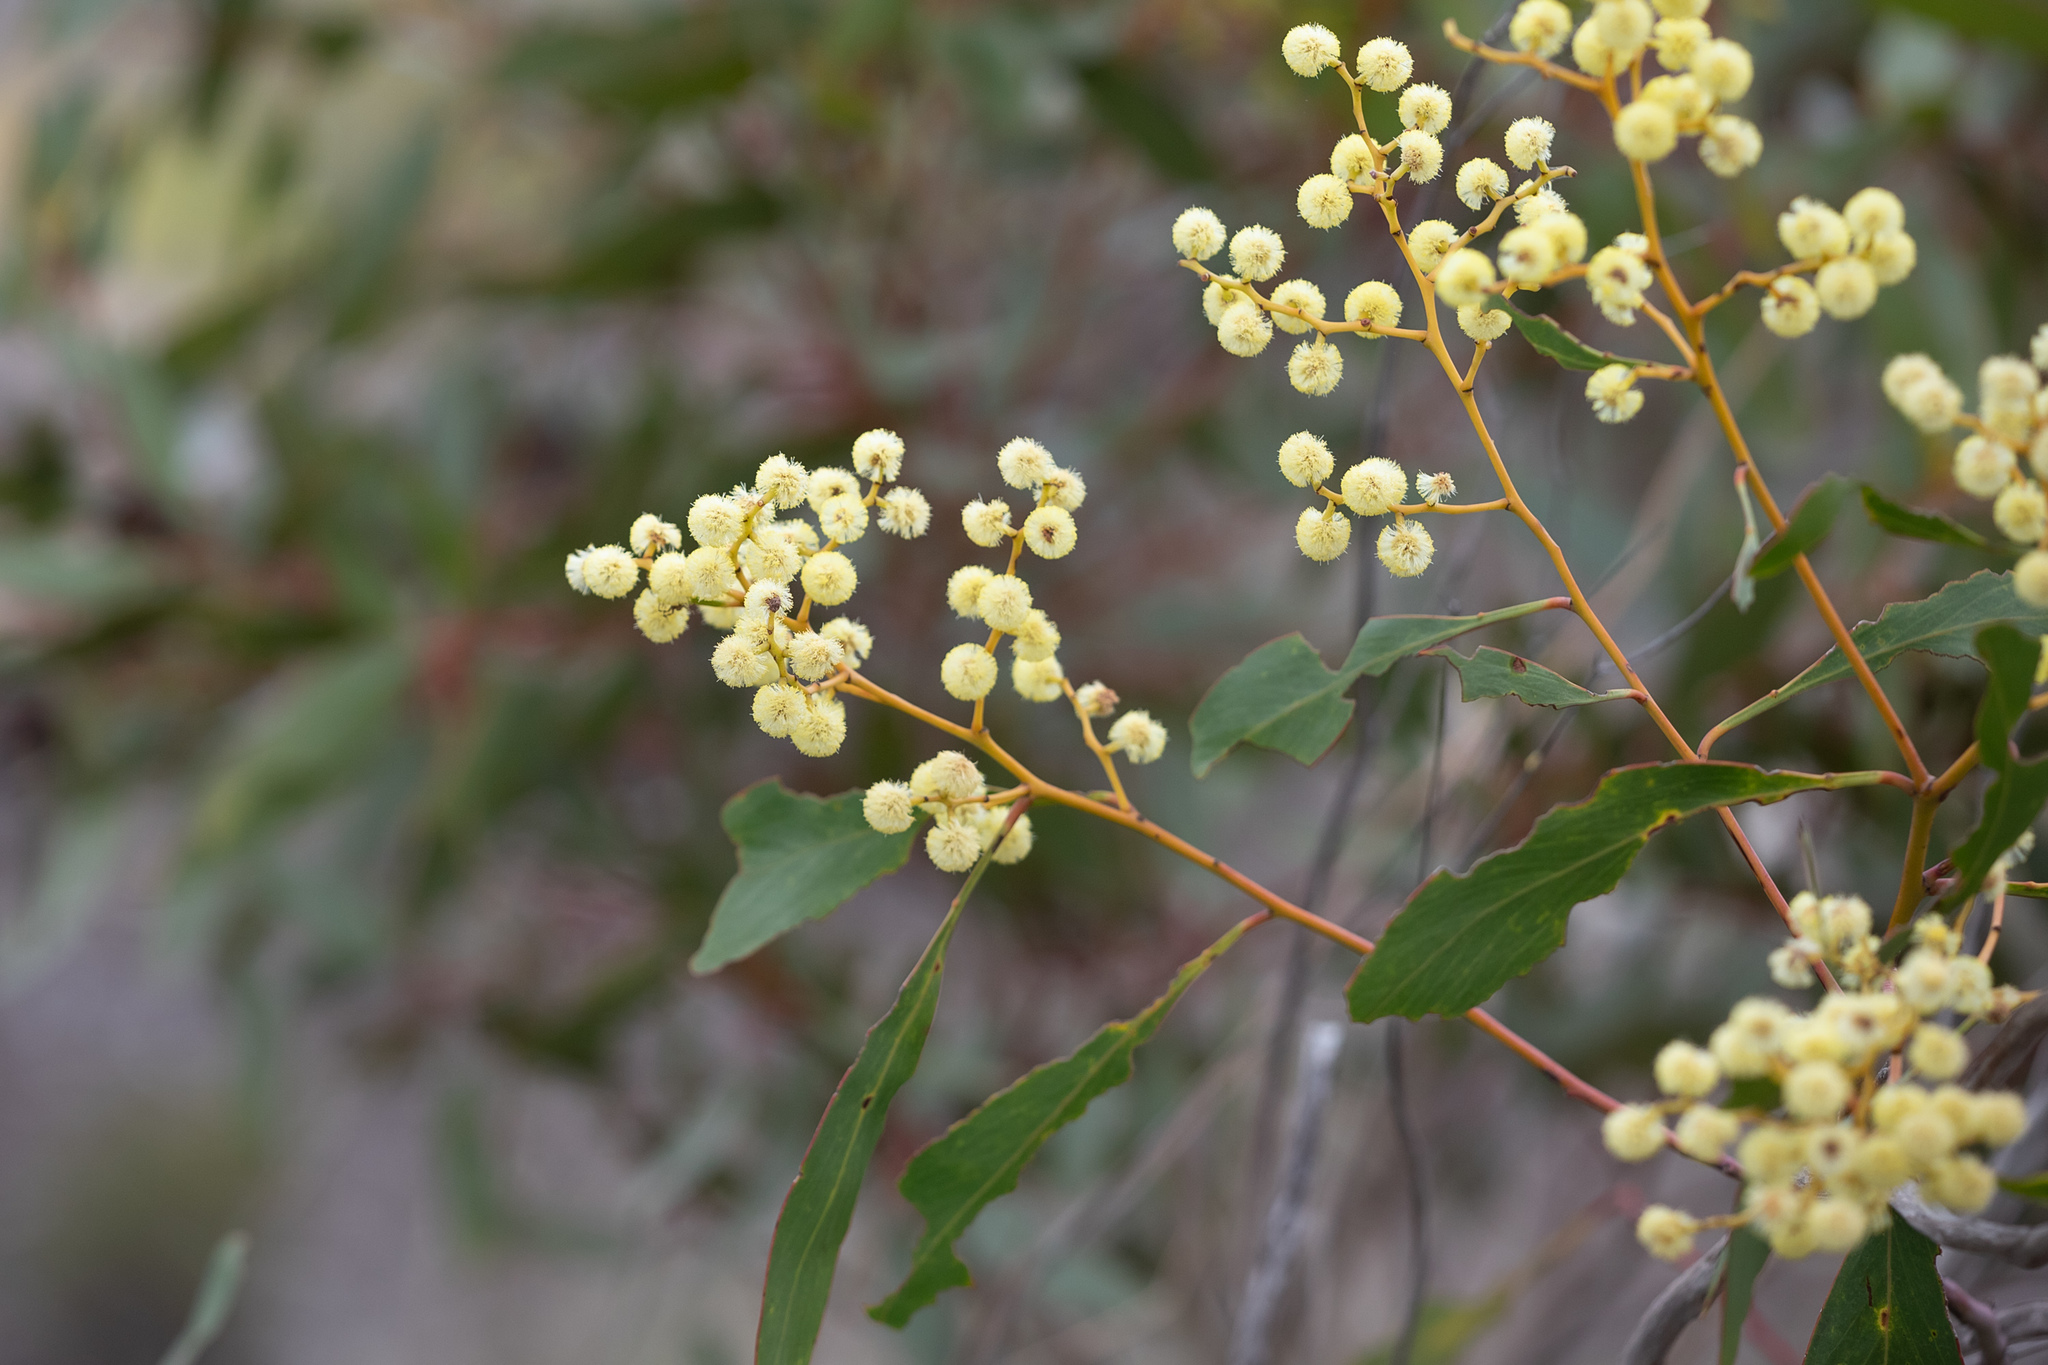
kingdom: Plantae
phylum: Tracheophyta
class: Magnoliopsida
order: Fabales
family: Fabaceae
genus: Acacia
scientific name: Acacia pycnantha
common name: Golden wattle
